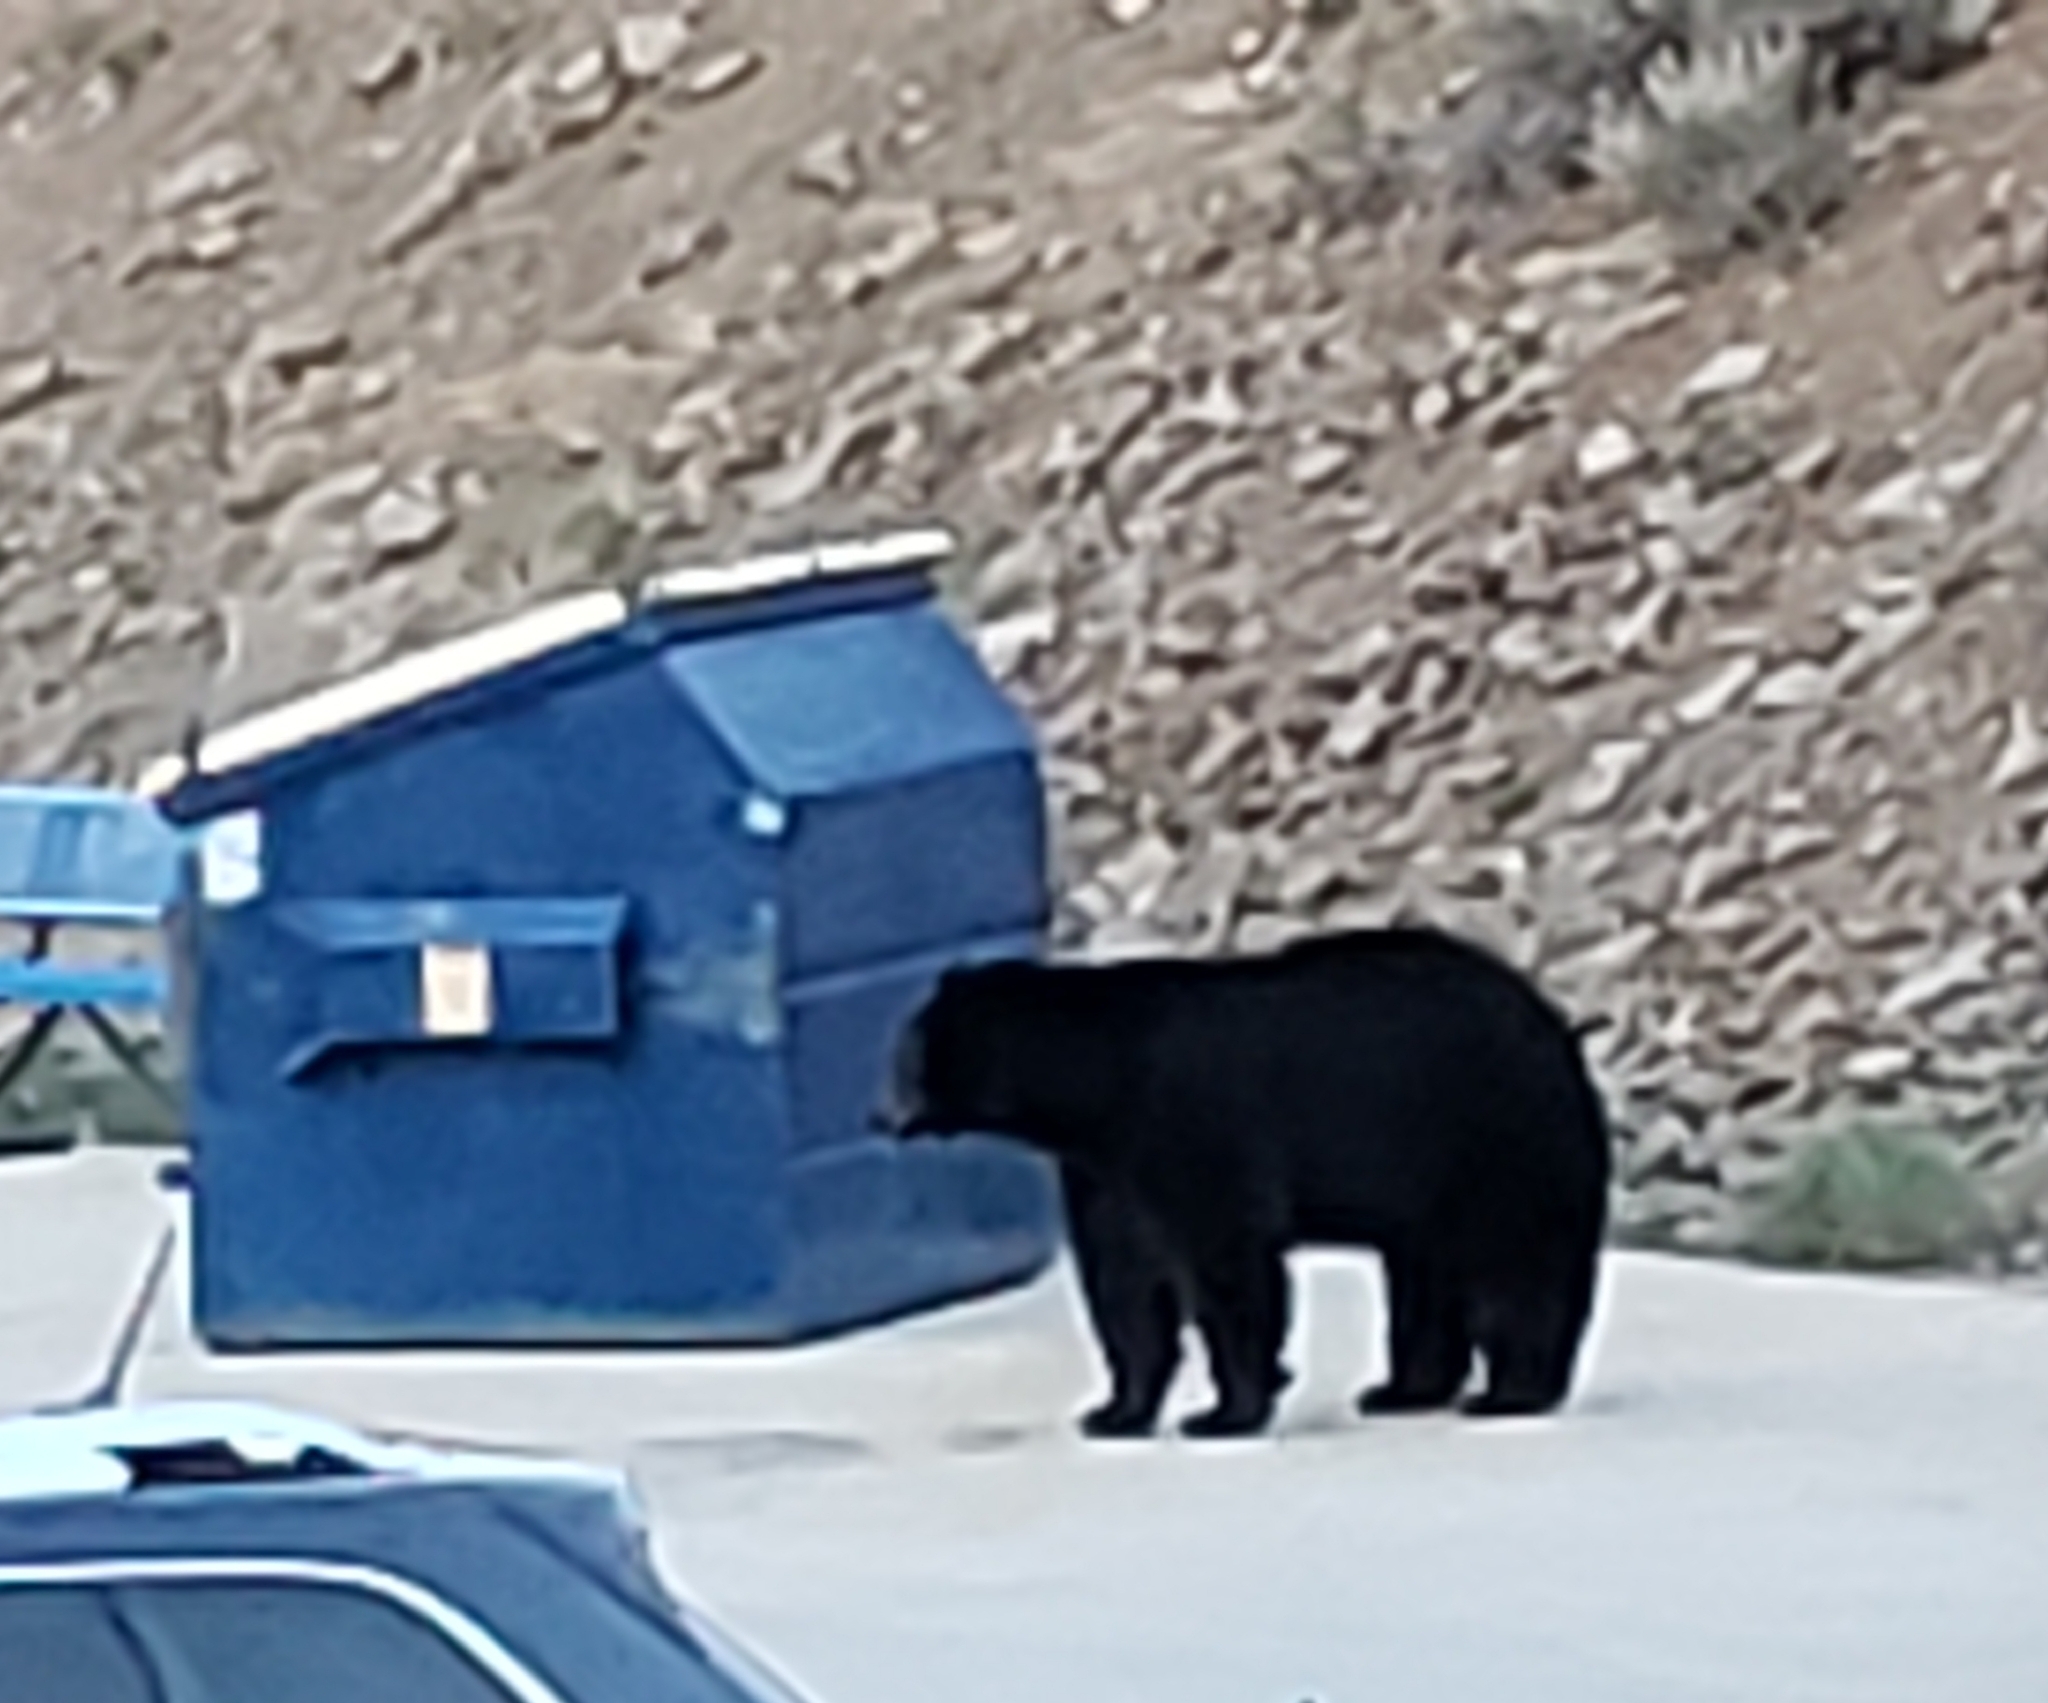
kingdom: Animalia
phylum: Chordata
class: Mammalia
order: Carnivora
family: Ursidae
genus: Ursus
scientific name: Ursus americanus
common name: American black bear
